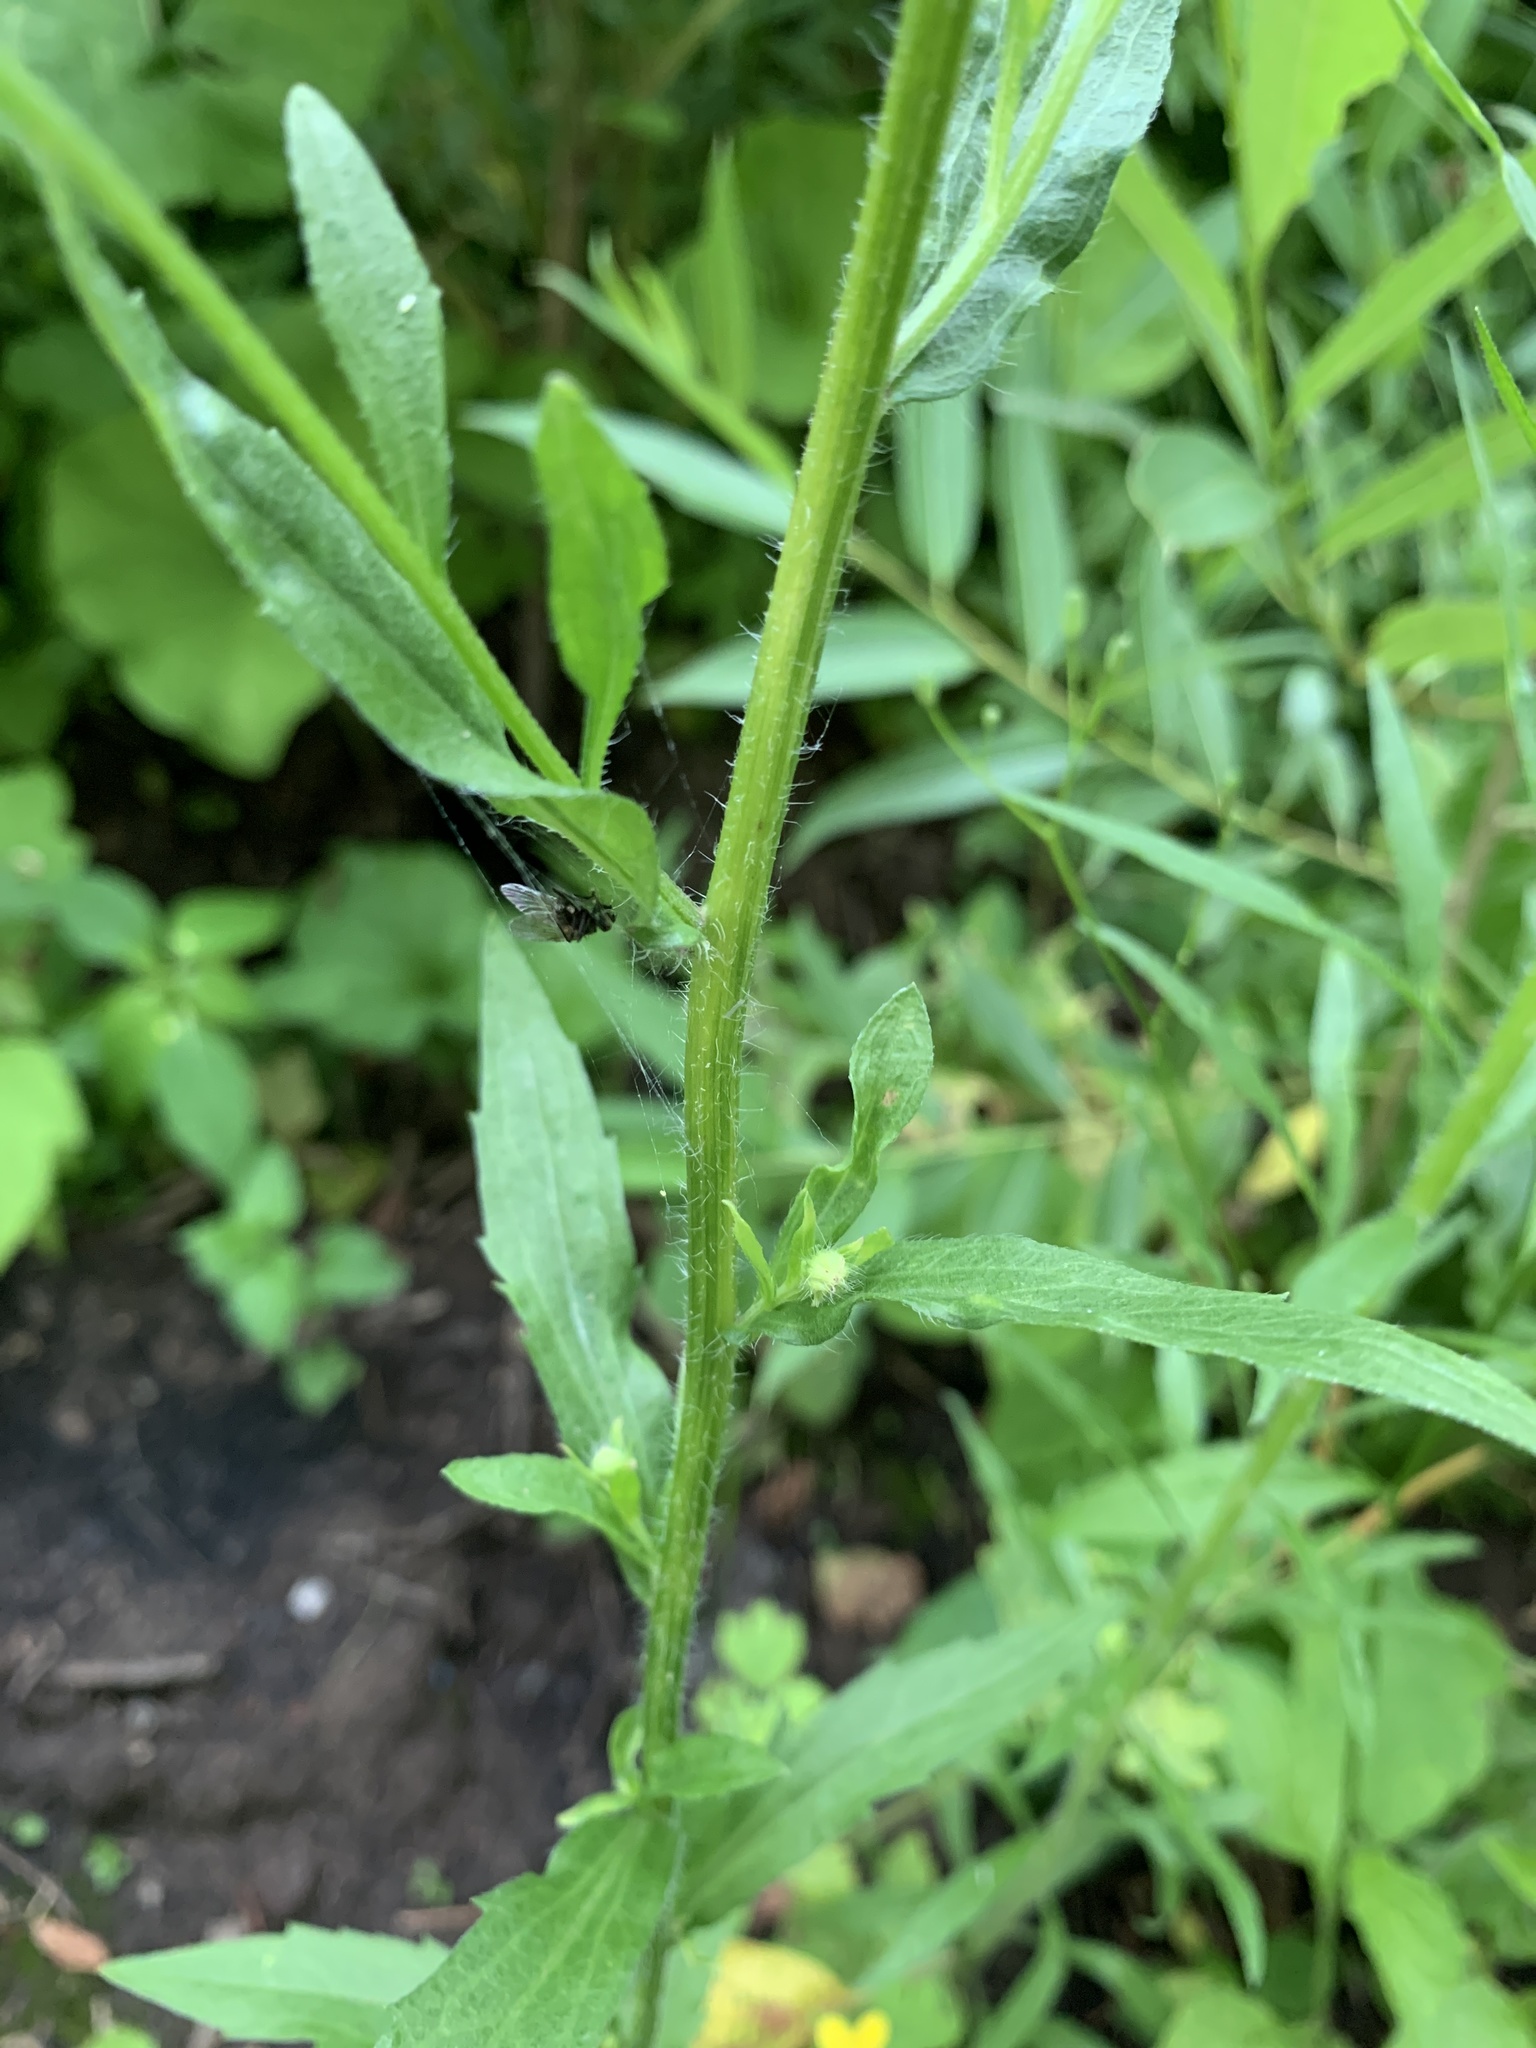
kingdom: Plantae
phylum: Tracheophyta
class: Magnoliopsida
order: Asterales
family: Asteraceae
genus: Erigeron
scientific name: Erigeron annuus
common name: Tall fleabane
